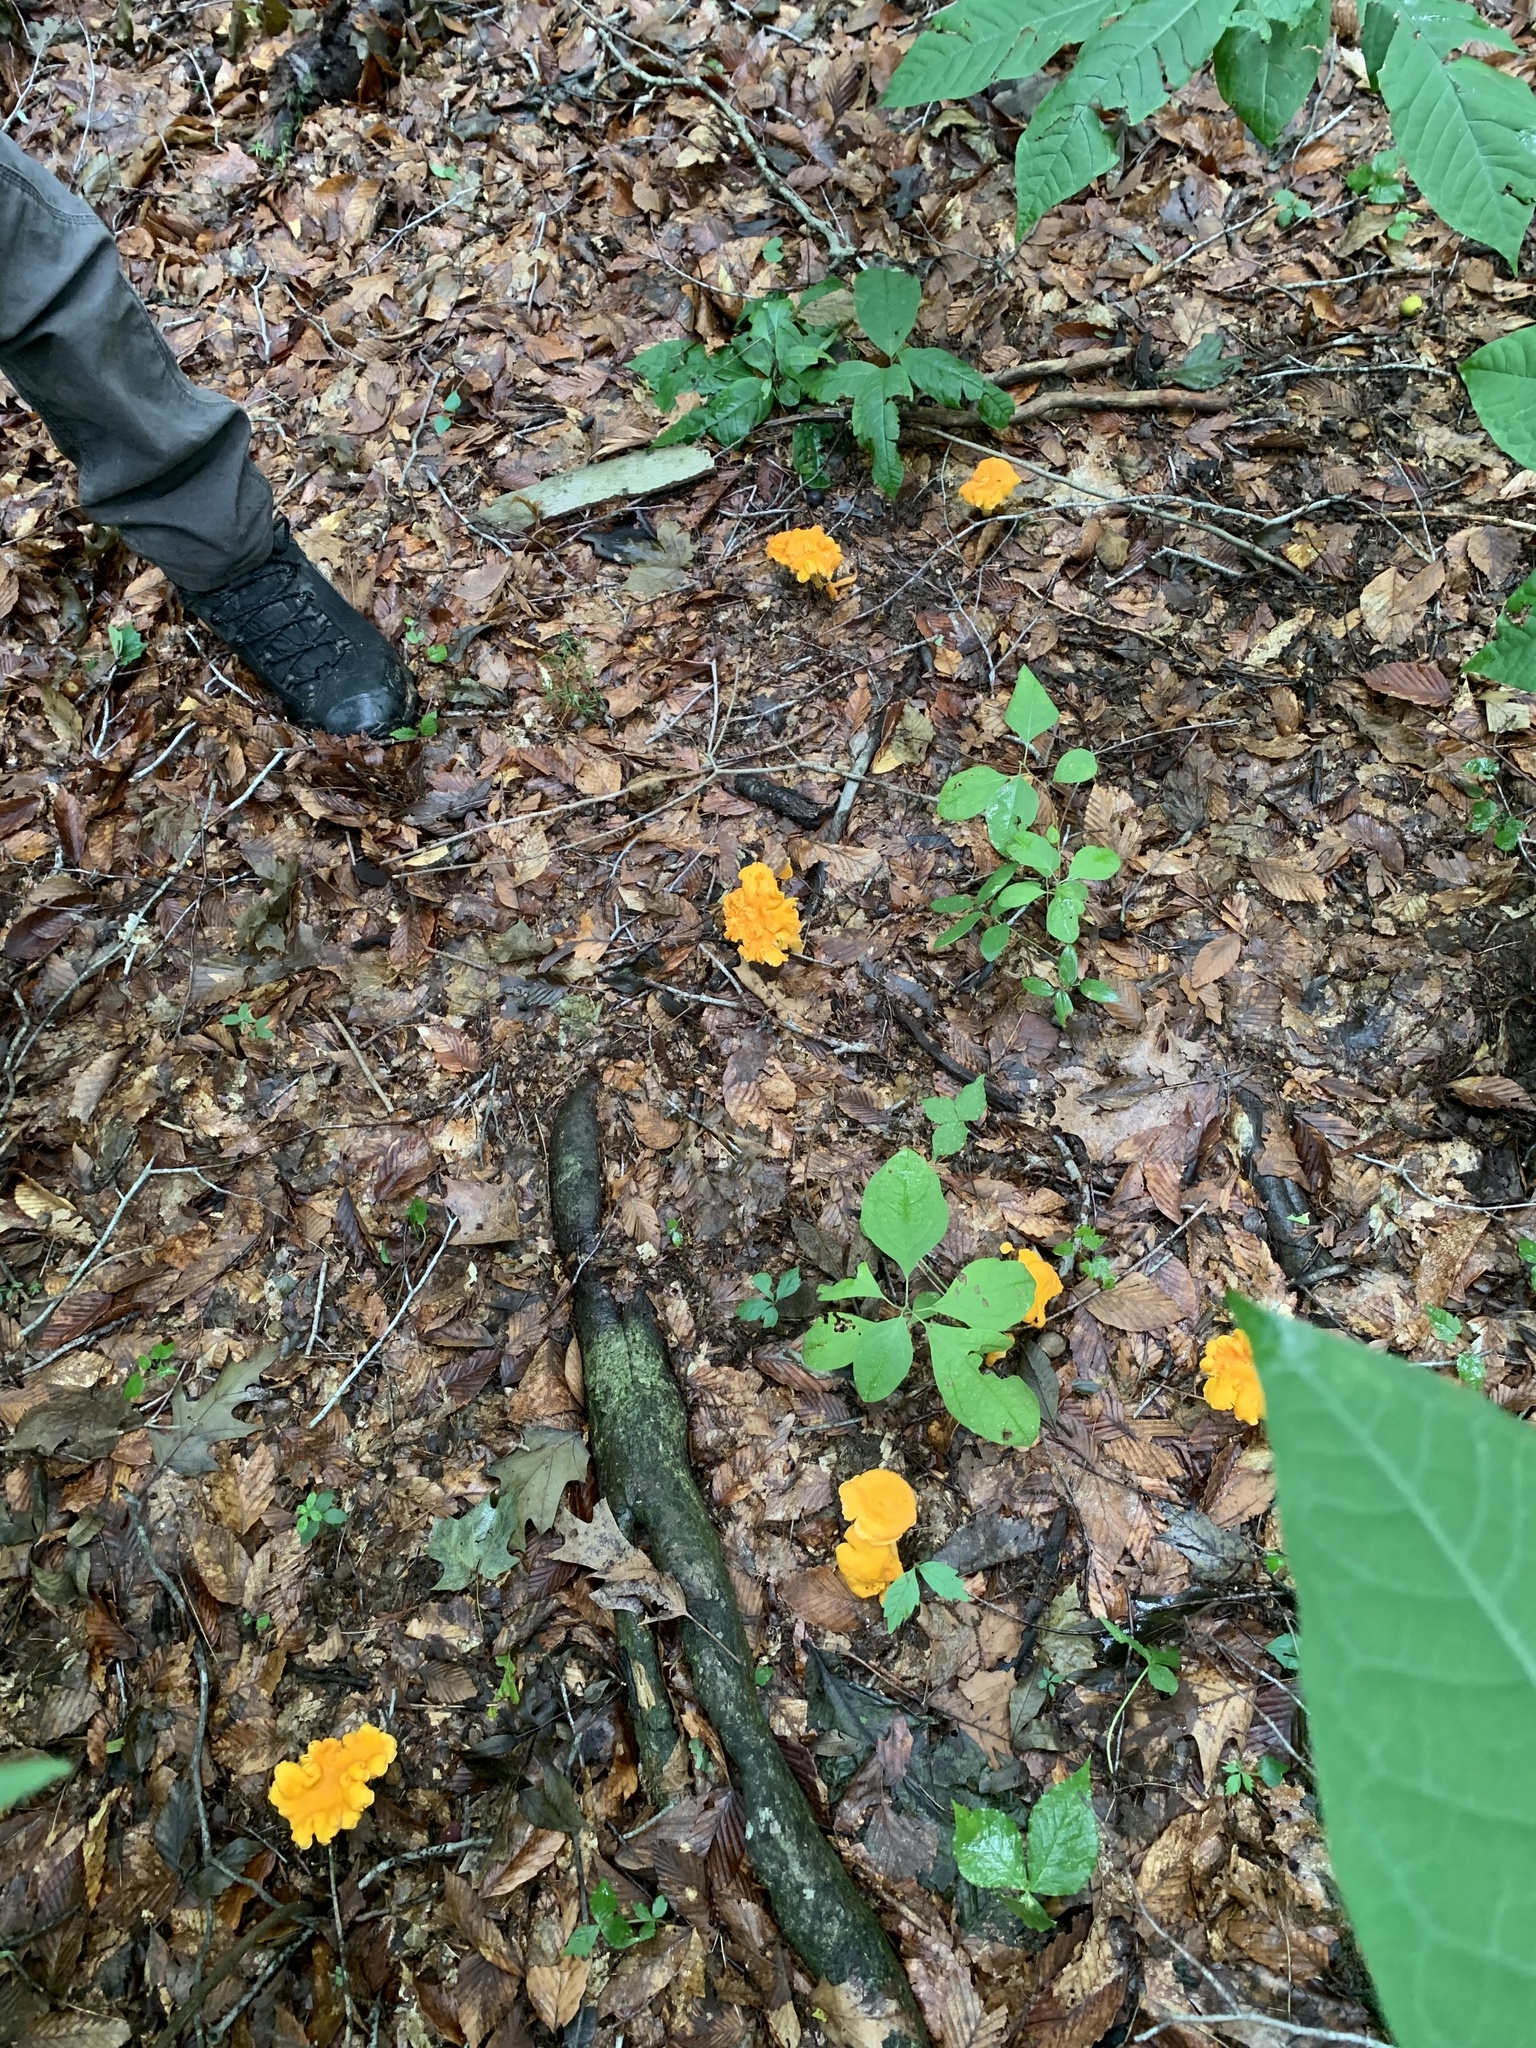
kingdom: Fungi
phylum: Basidiomycota
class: Agaricomycetes
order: Cantharellales
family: Hydnaceae
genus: Cantharellus
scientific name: Cantharellus flavolateritius
